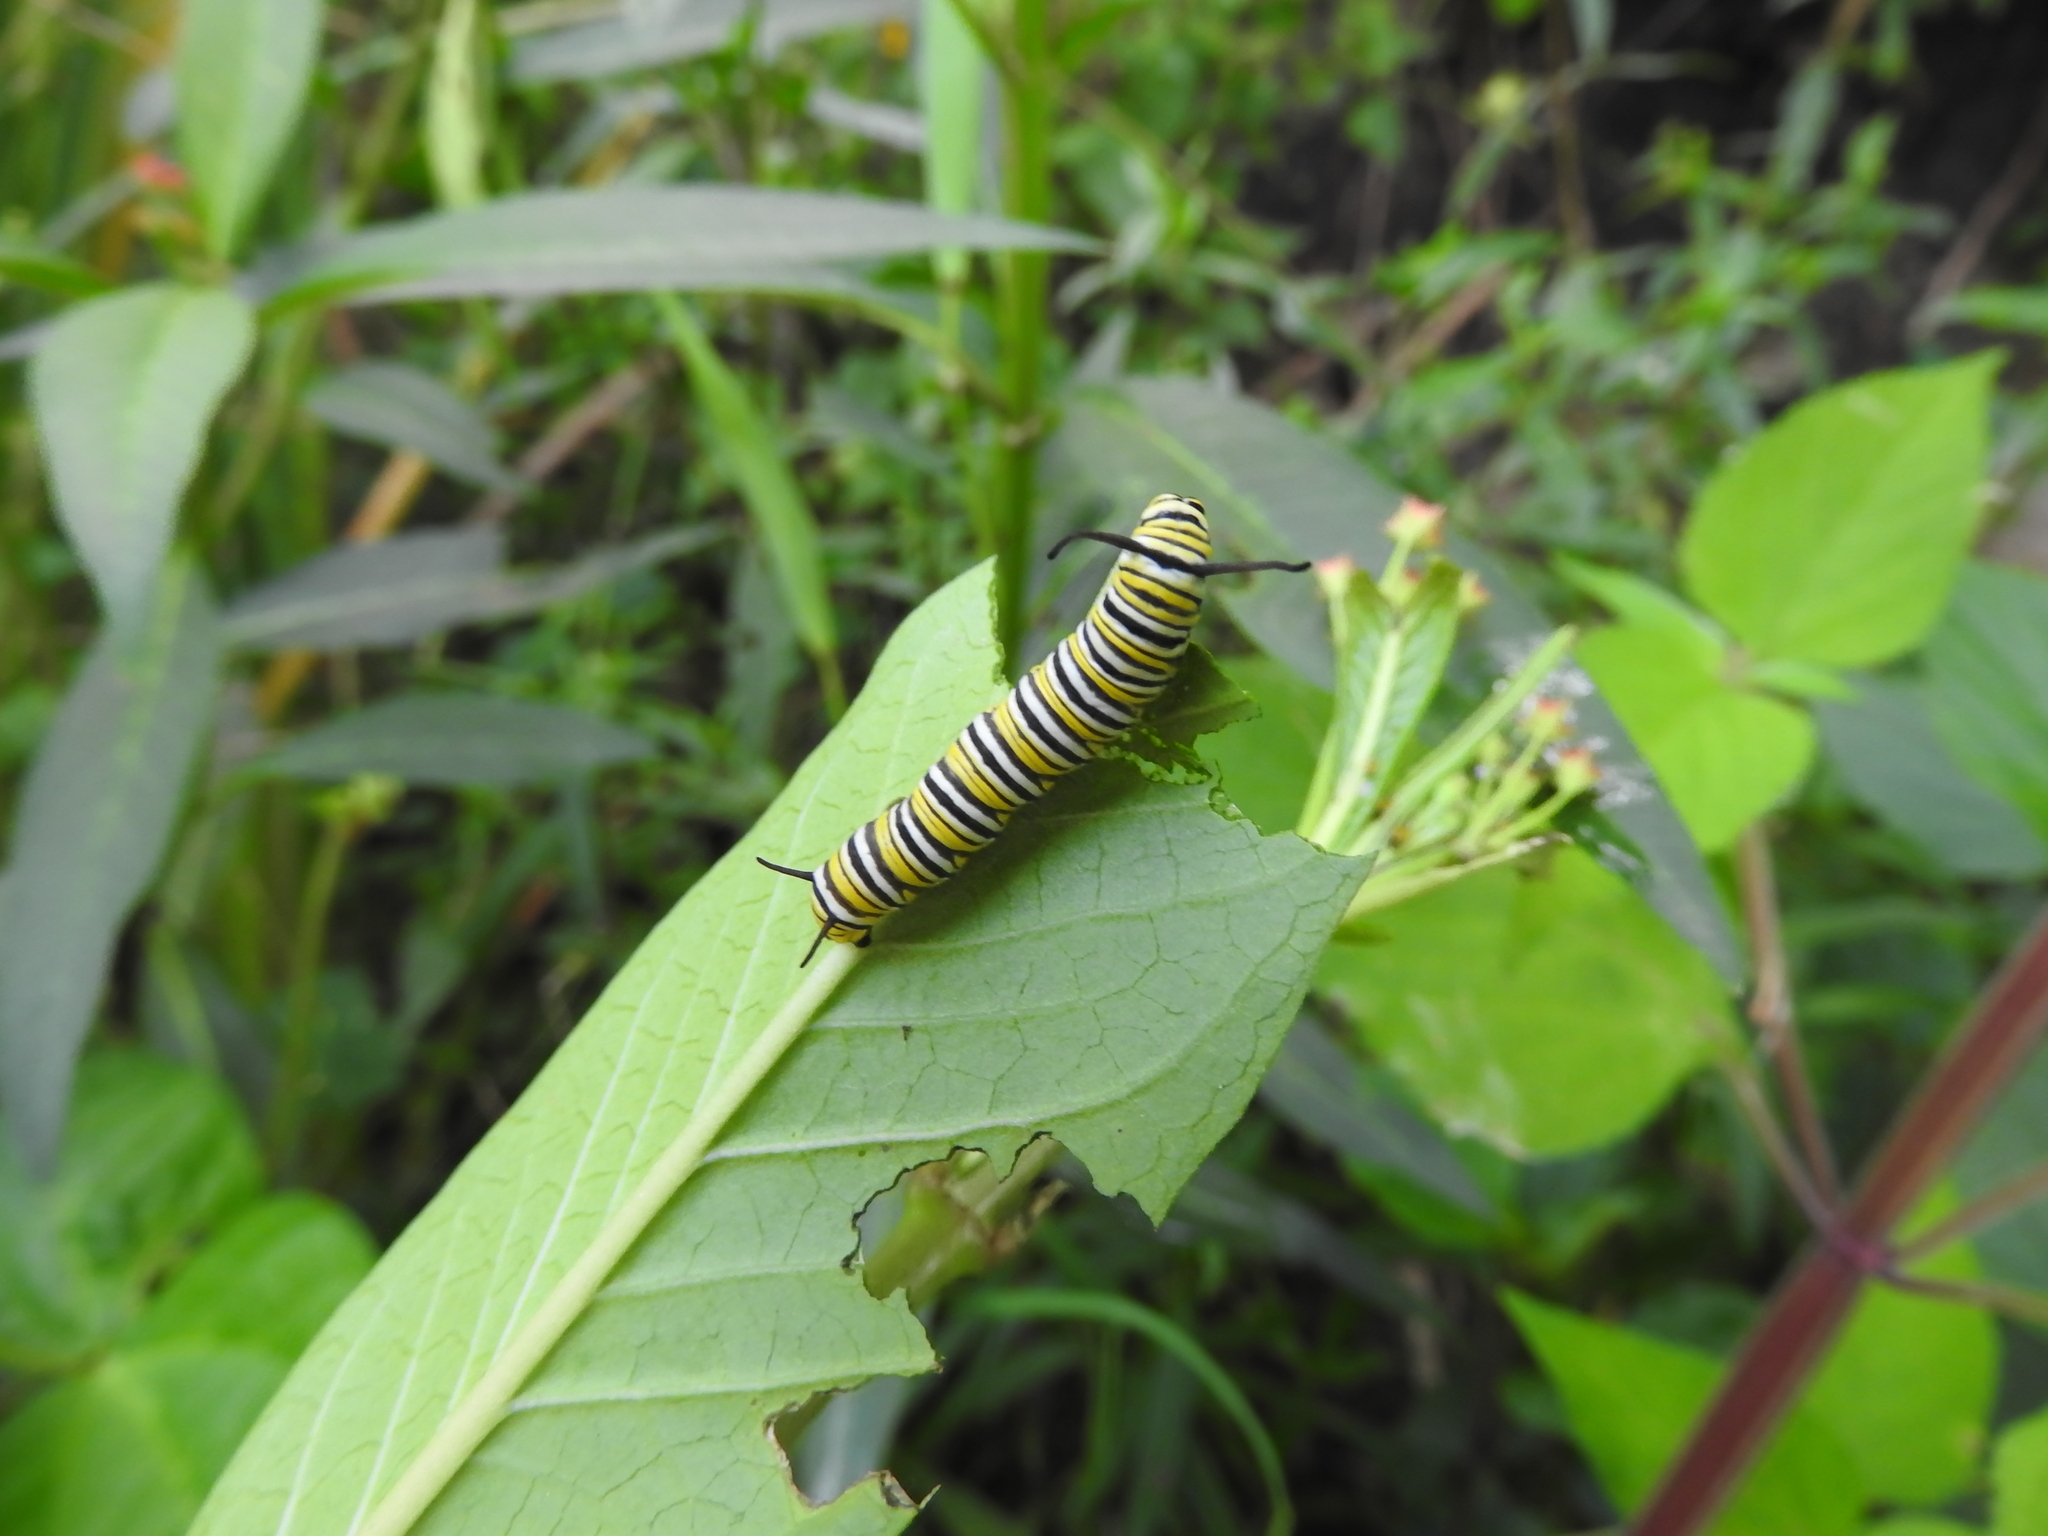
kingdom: Animalia
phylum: Arthropoda
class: Insecta
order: Lepidoptera
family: Nymphalidae
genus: Danaus
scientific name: Danaus plexippus
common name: Monarch
